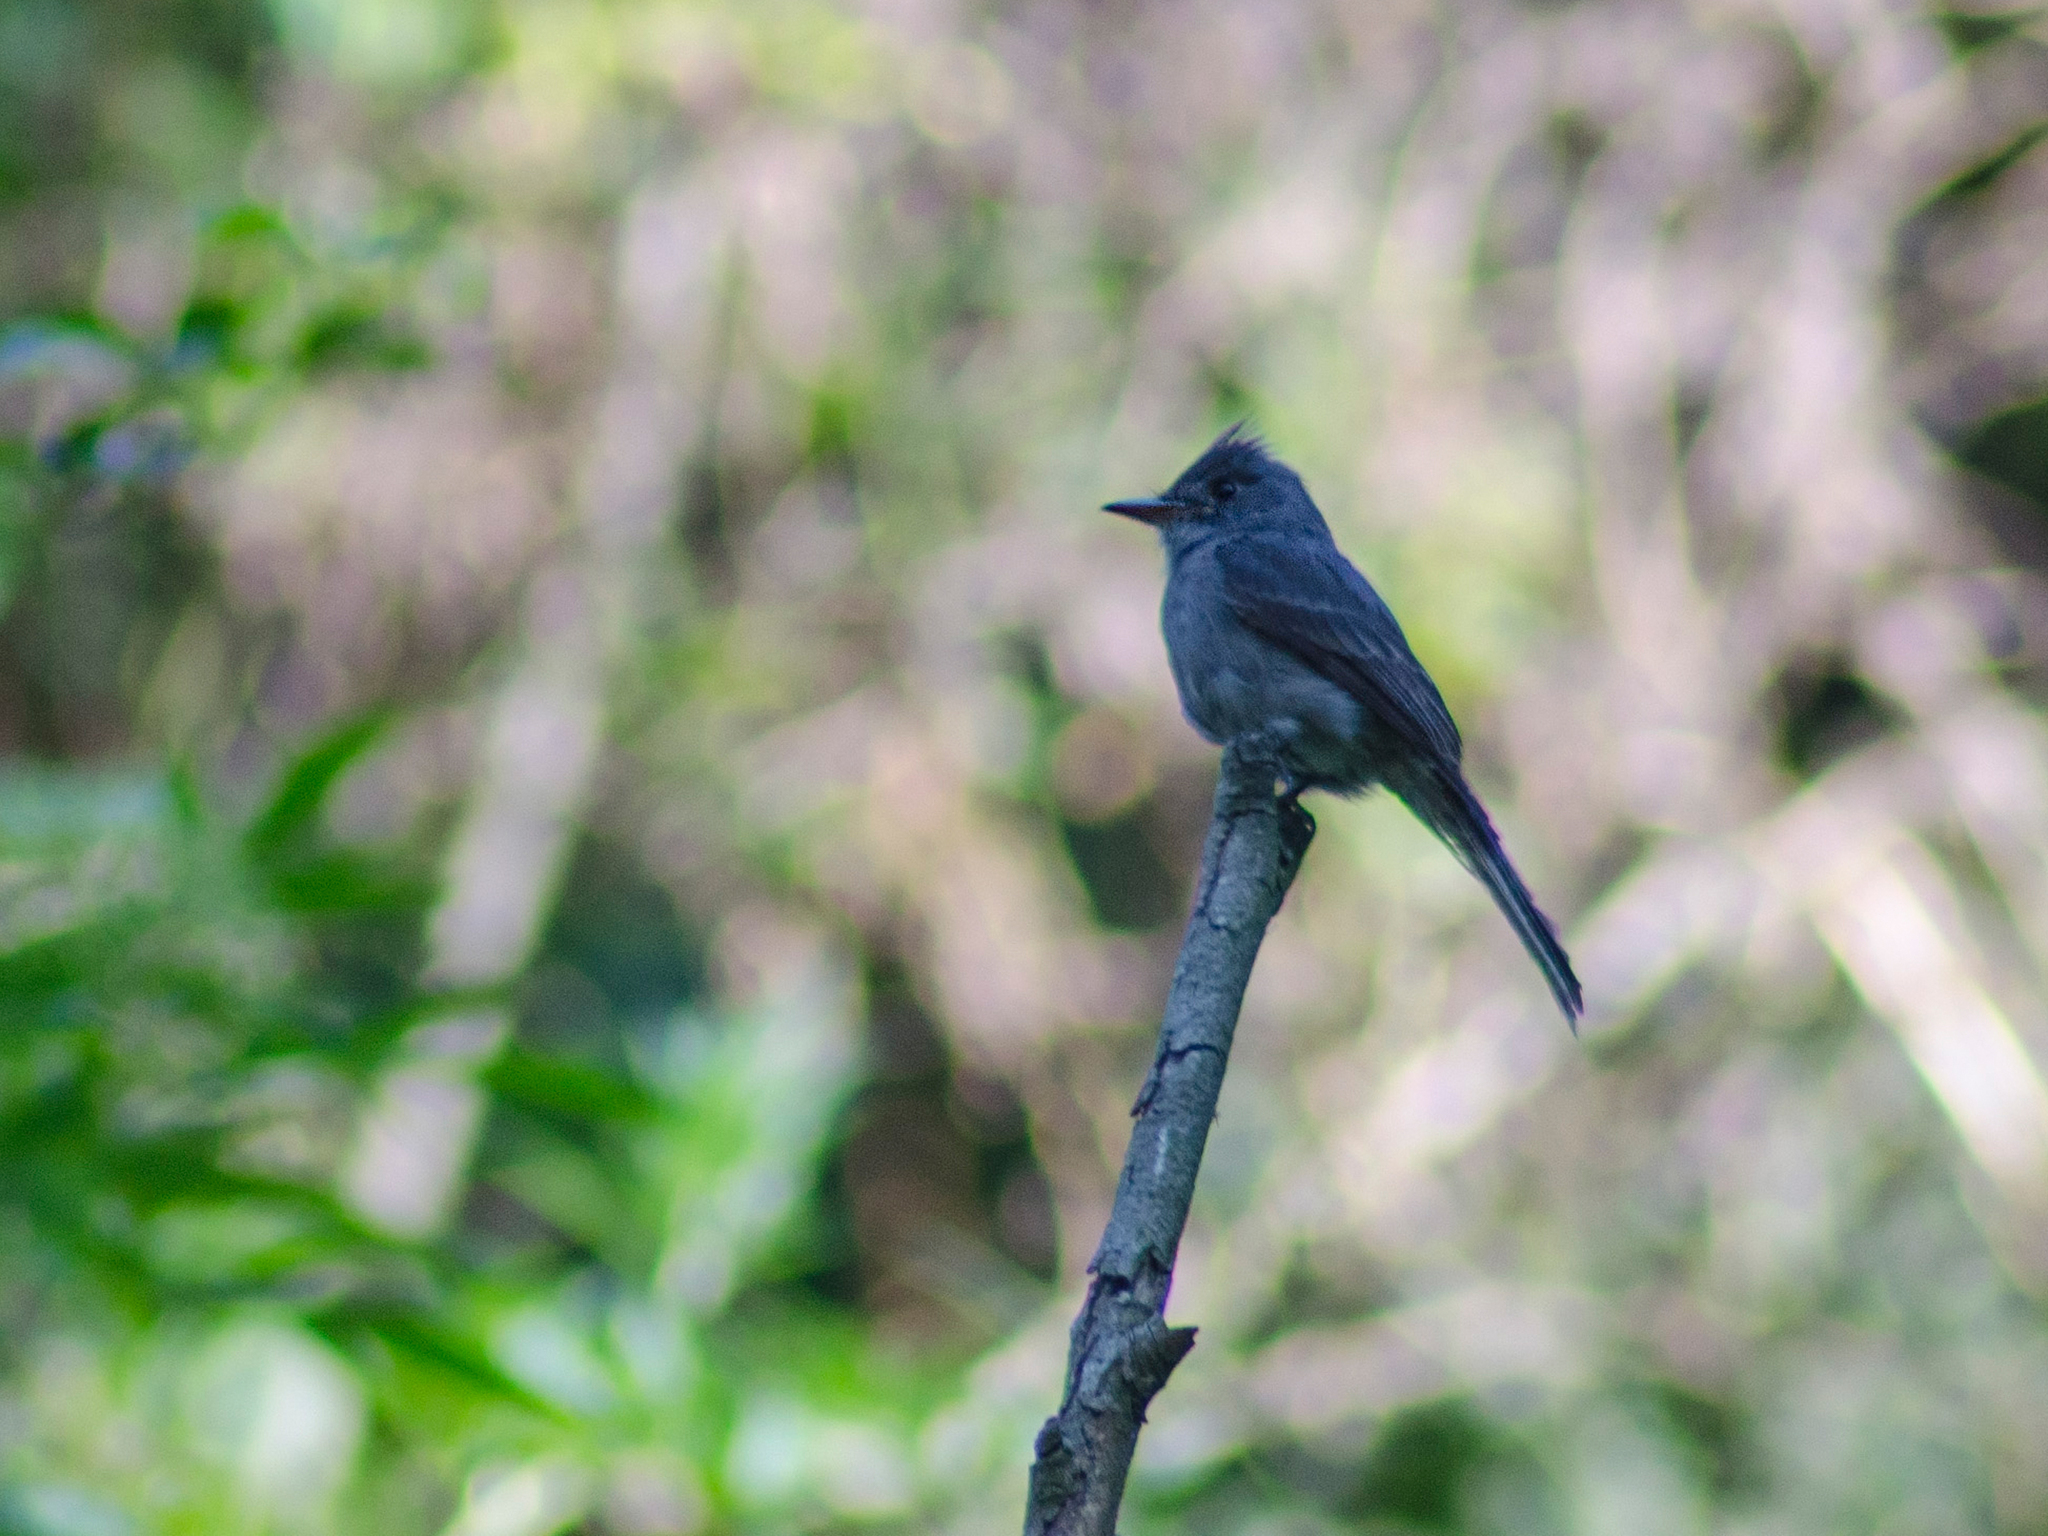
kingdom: Animalia
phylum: Chordata
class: Aves
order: Passeriformes
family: Tyrannidae
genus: Contopus
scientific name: Contopus fumigatus
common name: Smoke-colored pewee
